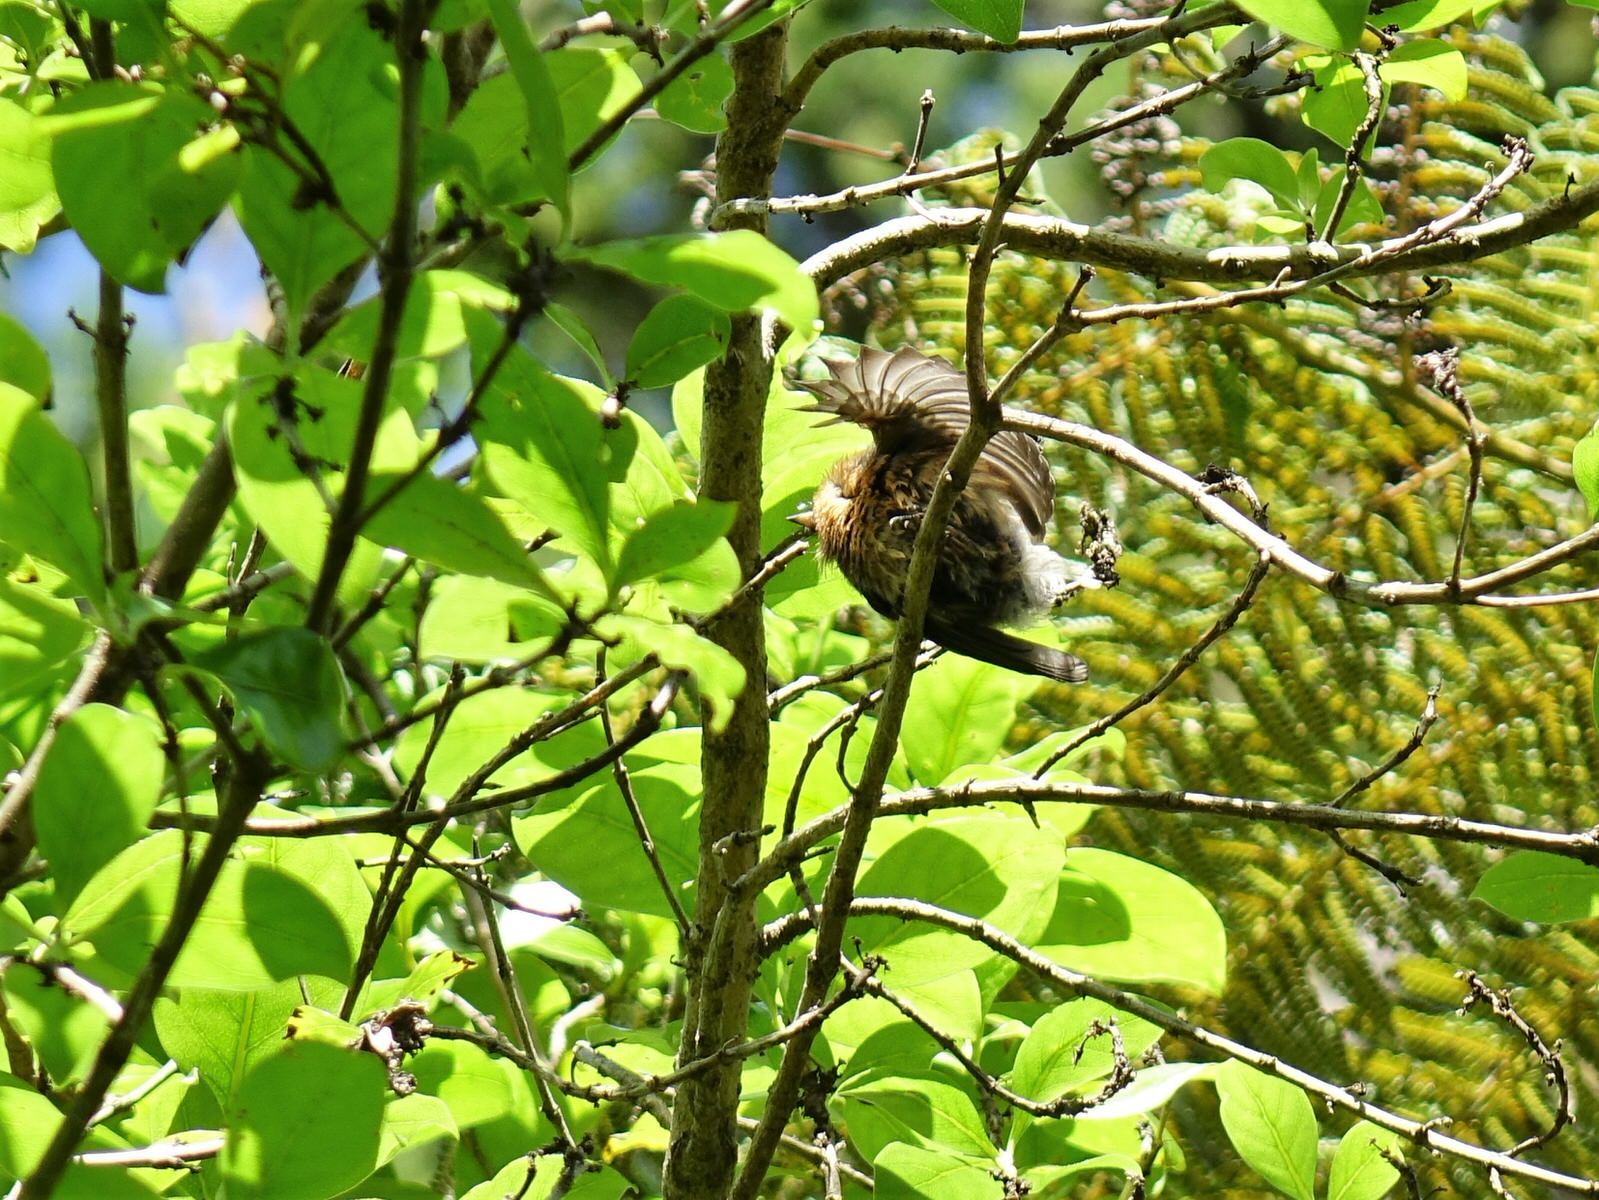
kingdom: Animalia
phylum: Chordata
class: Aves
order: Passeriformes
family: Rhipiduridae
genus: Rhipidura
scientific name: Rhipidura fuliginosa
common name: New zealand fantail
